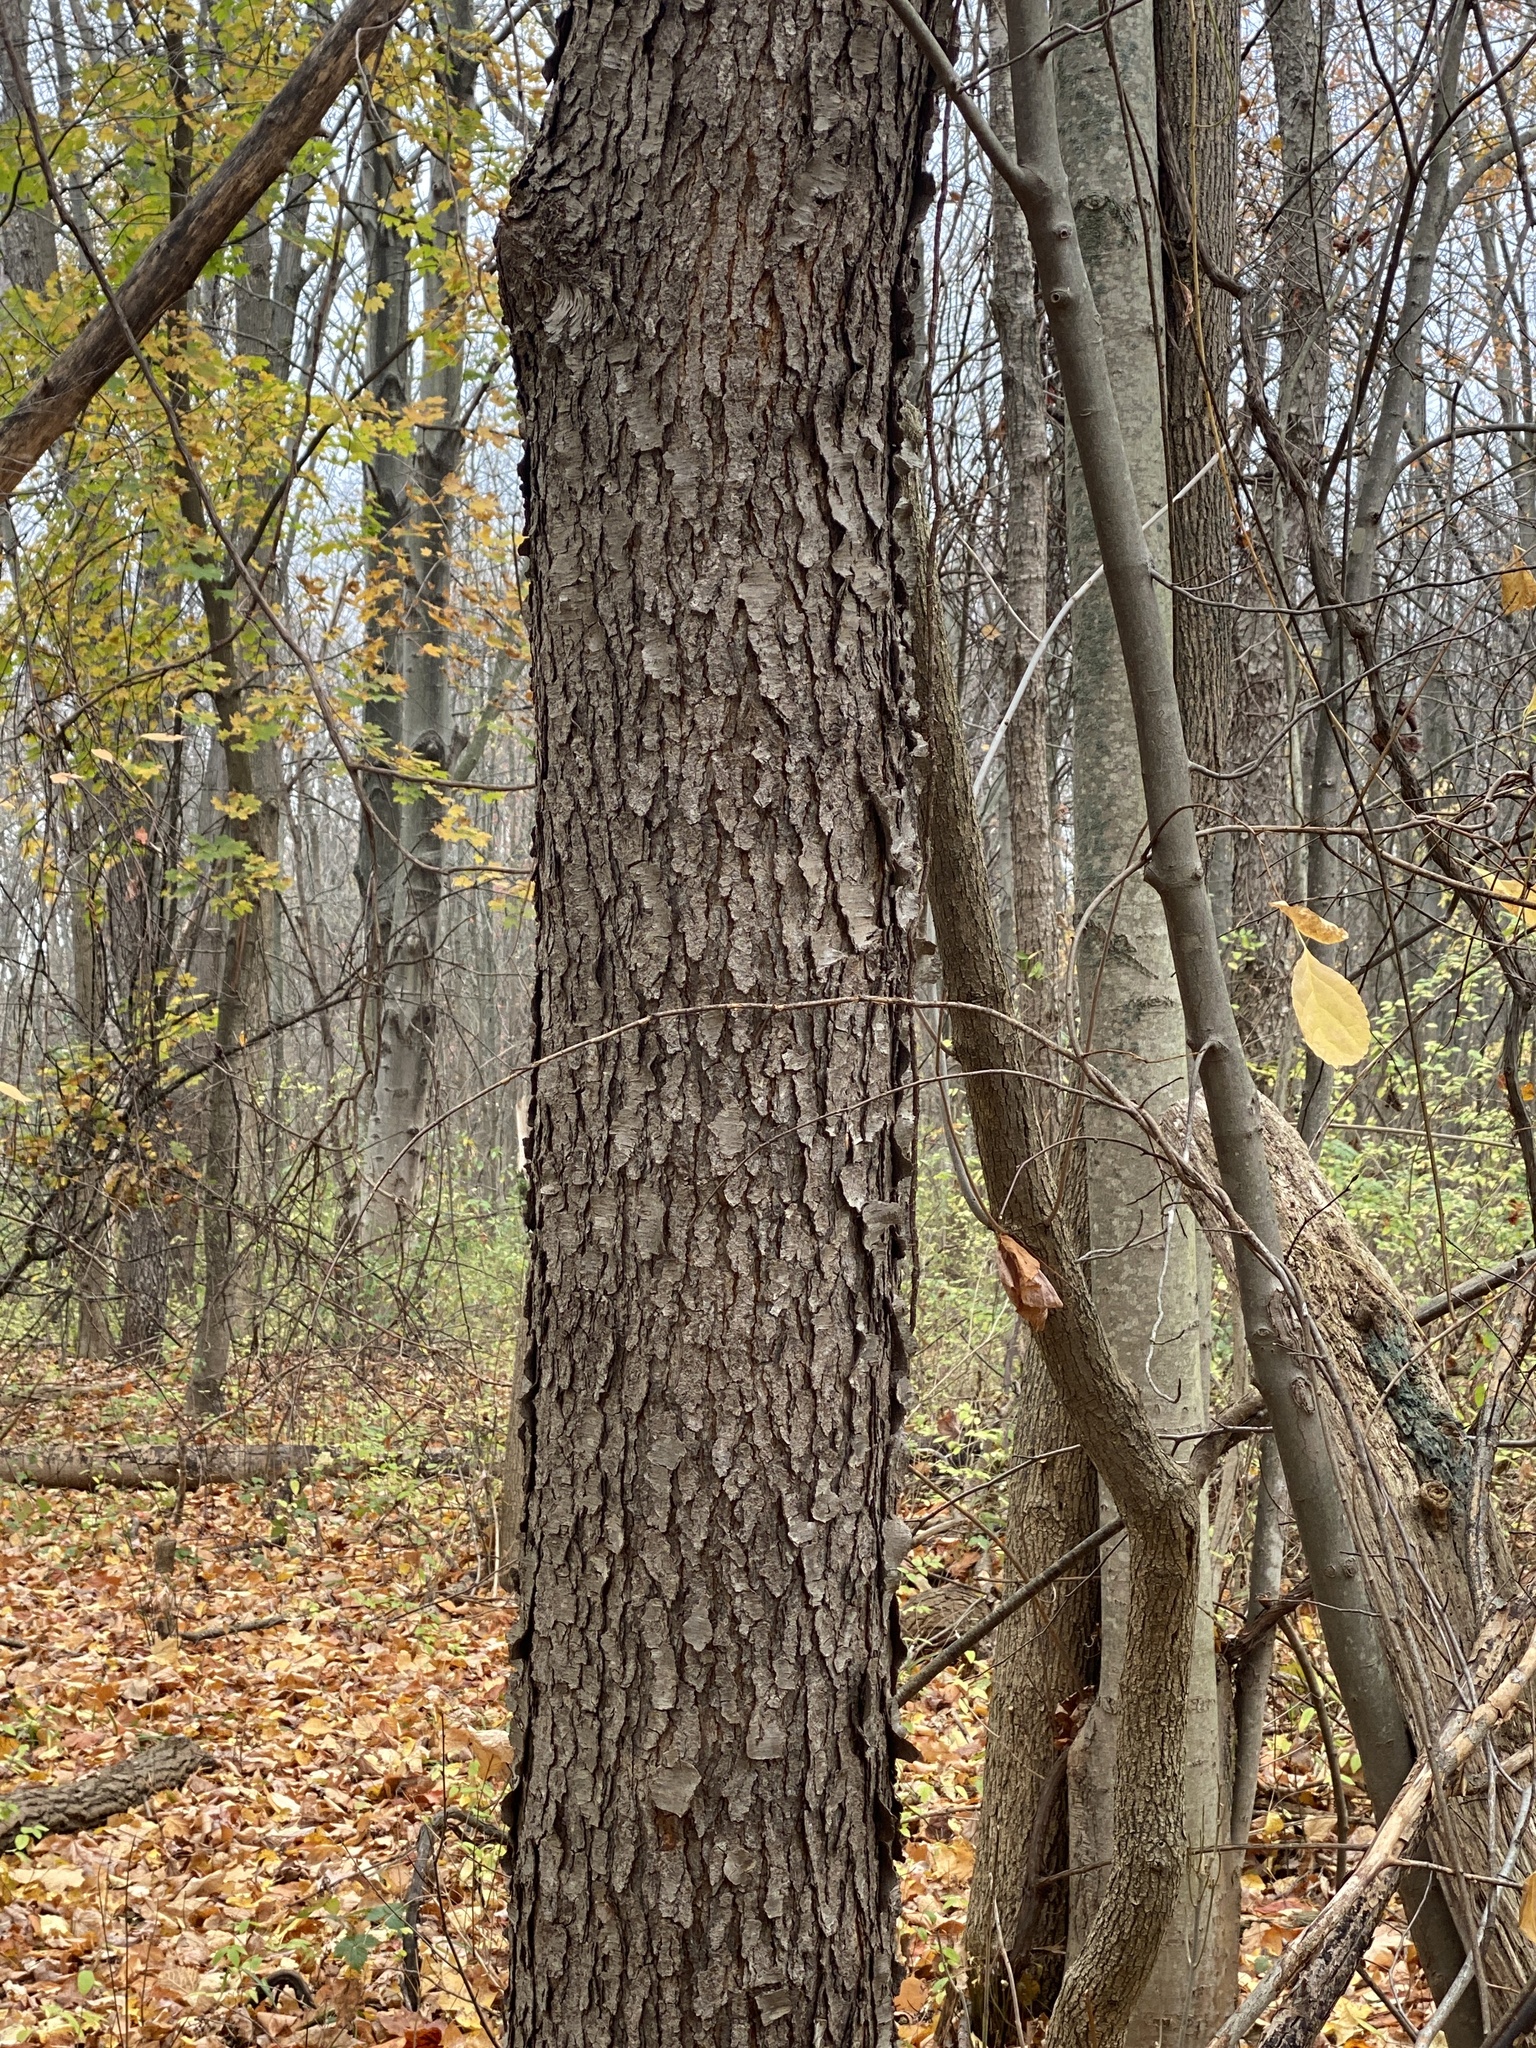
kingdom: Plantae
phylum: Tracheophyta
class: Magnoliopsida
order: Rosales
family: Rosaceae
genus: Prunus
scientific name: Prunus serotina
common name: Black cherry
